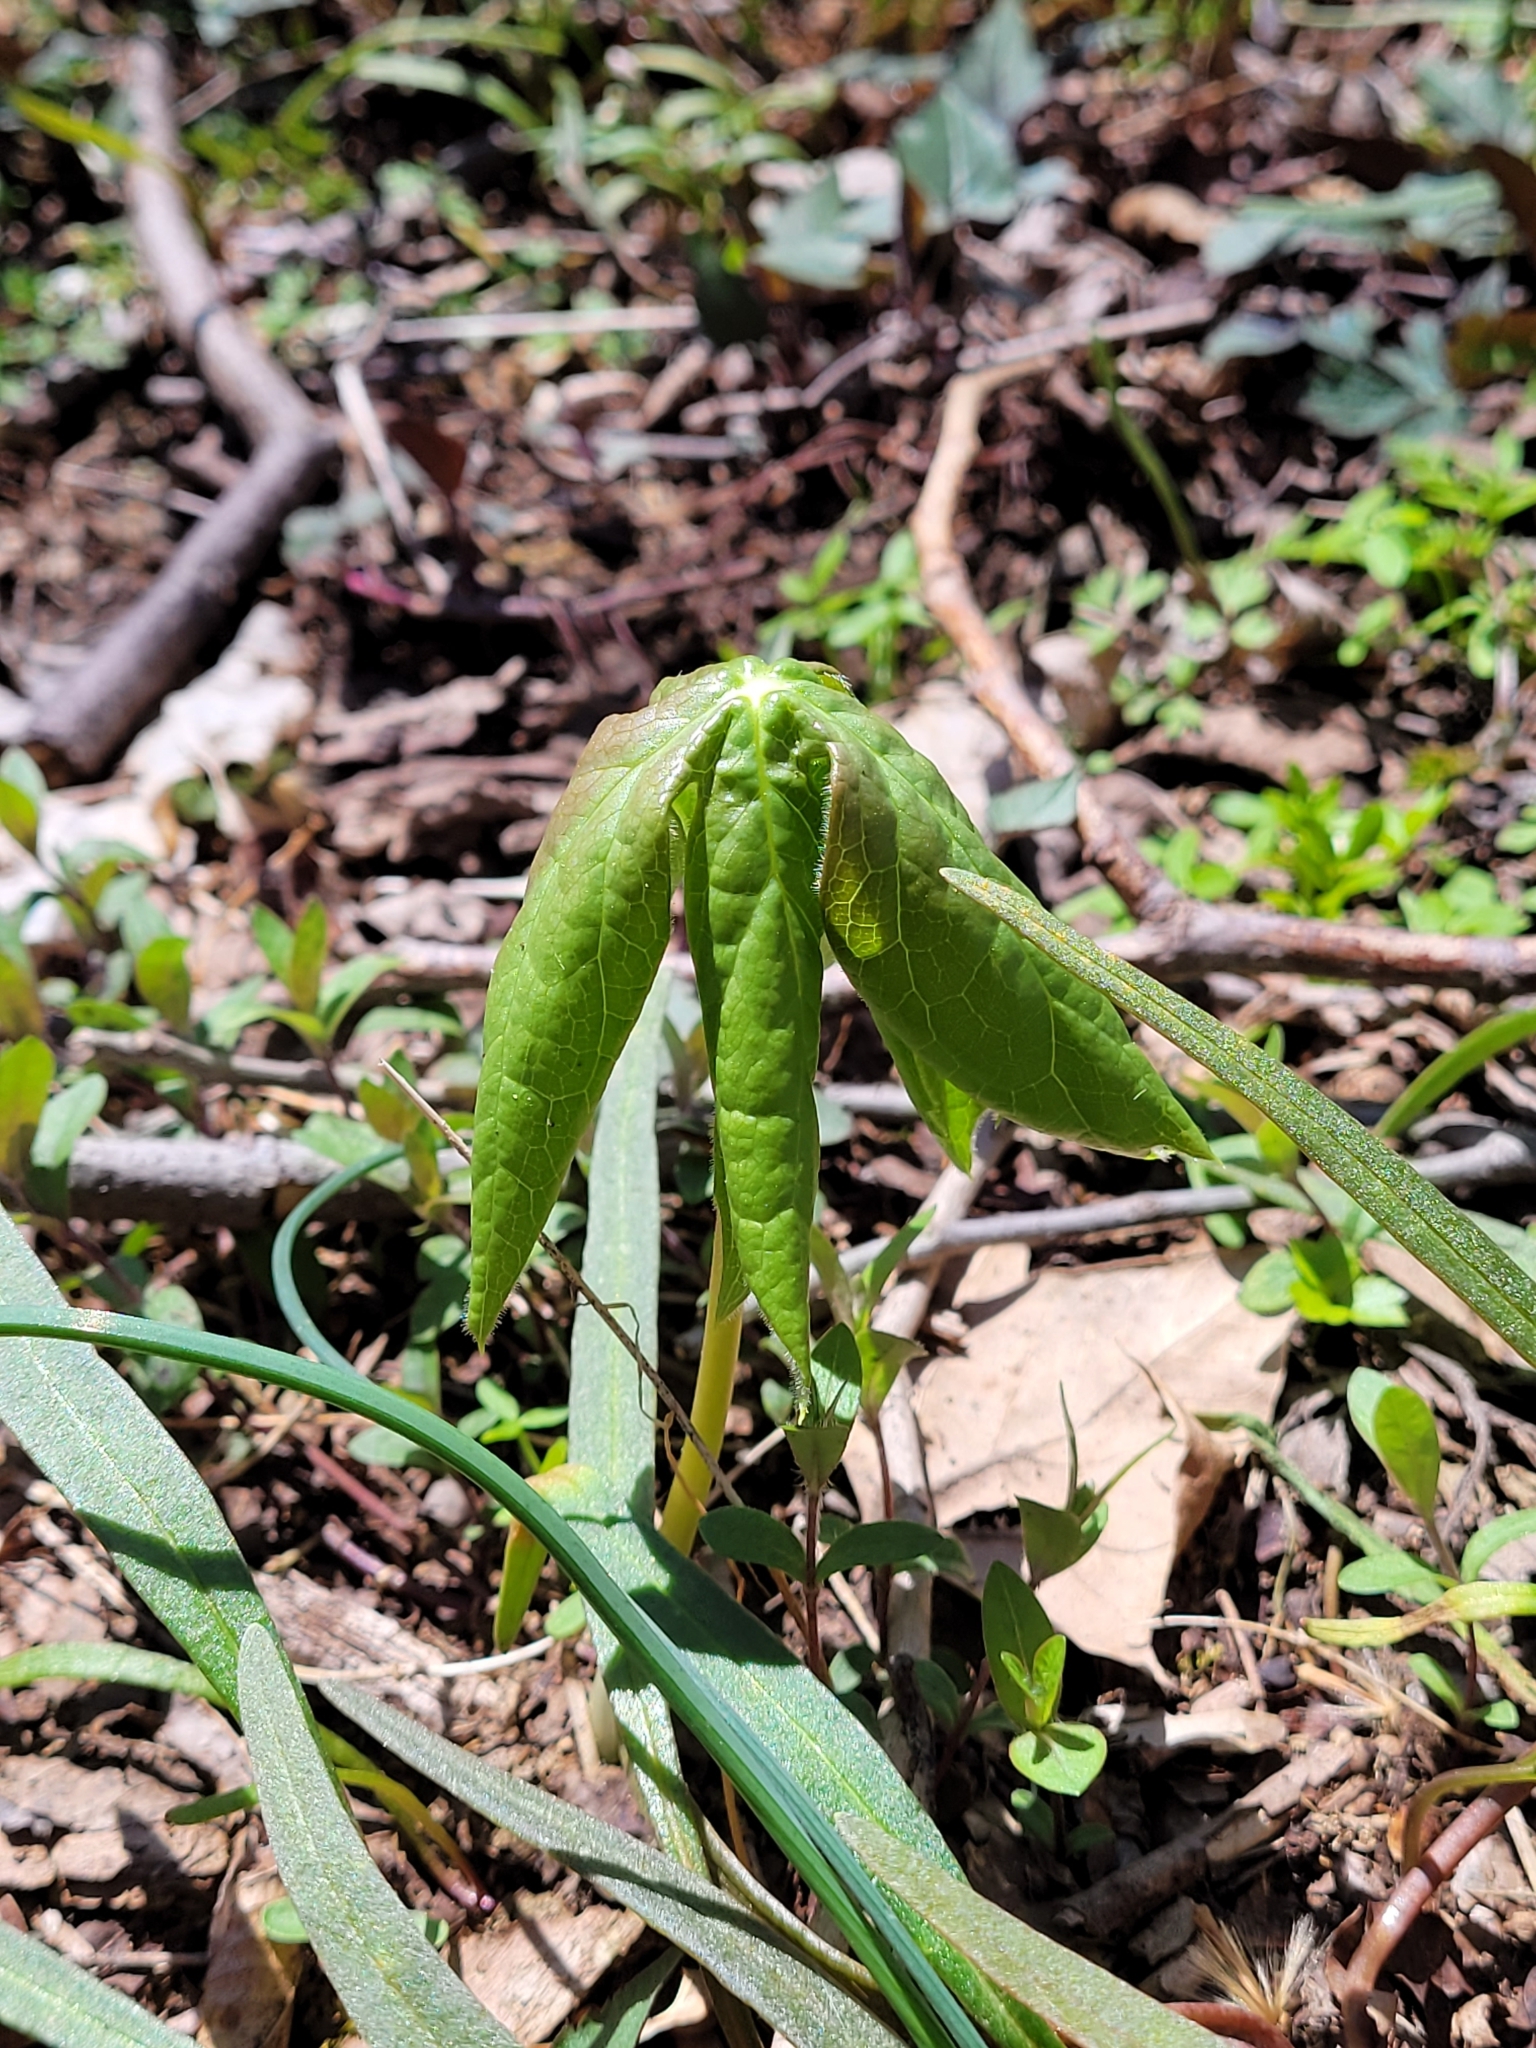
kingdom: Plantae
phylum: Tracheophyta
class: Magnoliopsida
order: Ranunculales
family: Berberidaceae
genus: Podophyllum
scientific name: Podophyllum peltatum
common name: Wild mandrake
